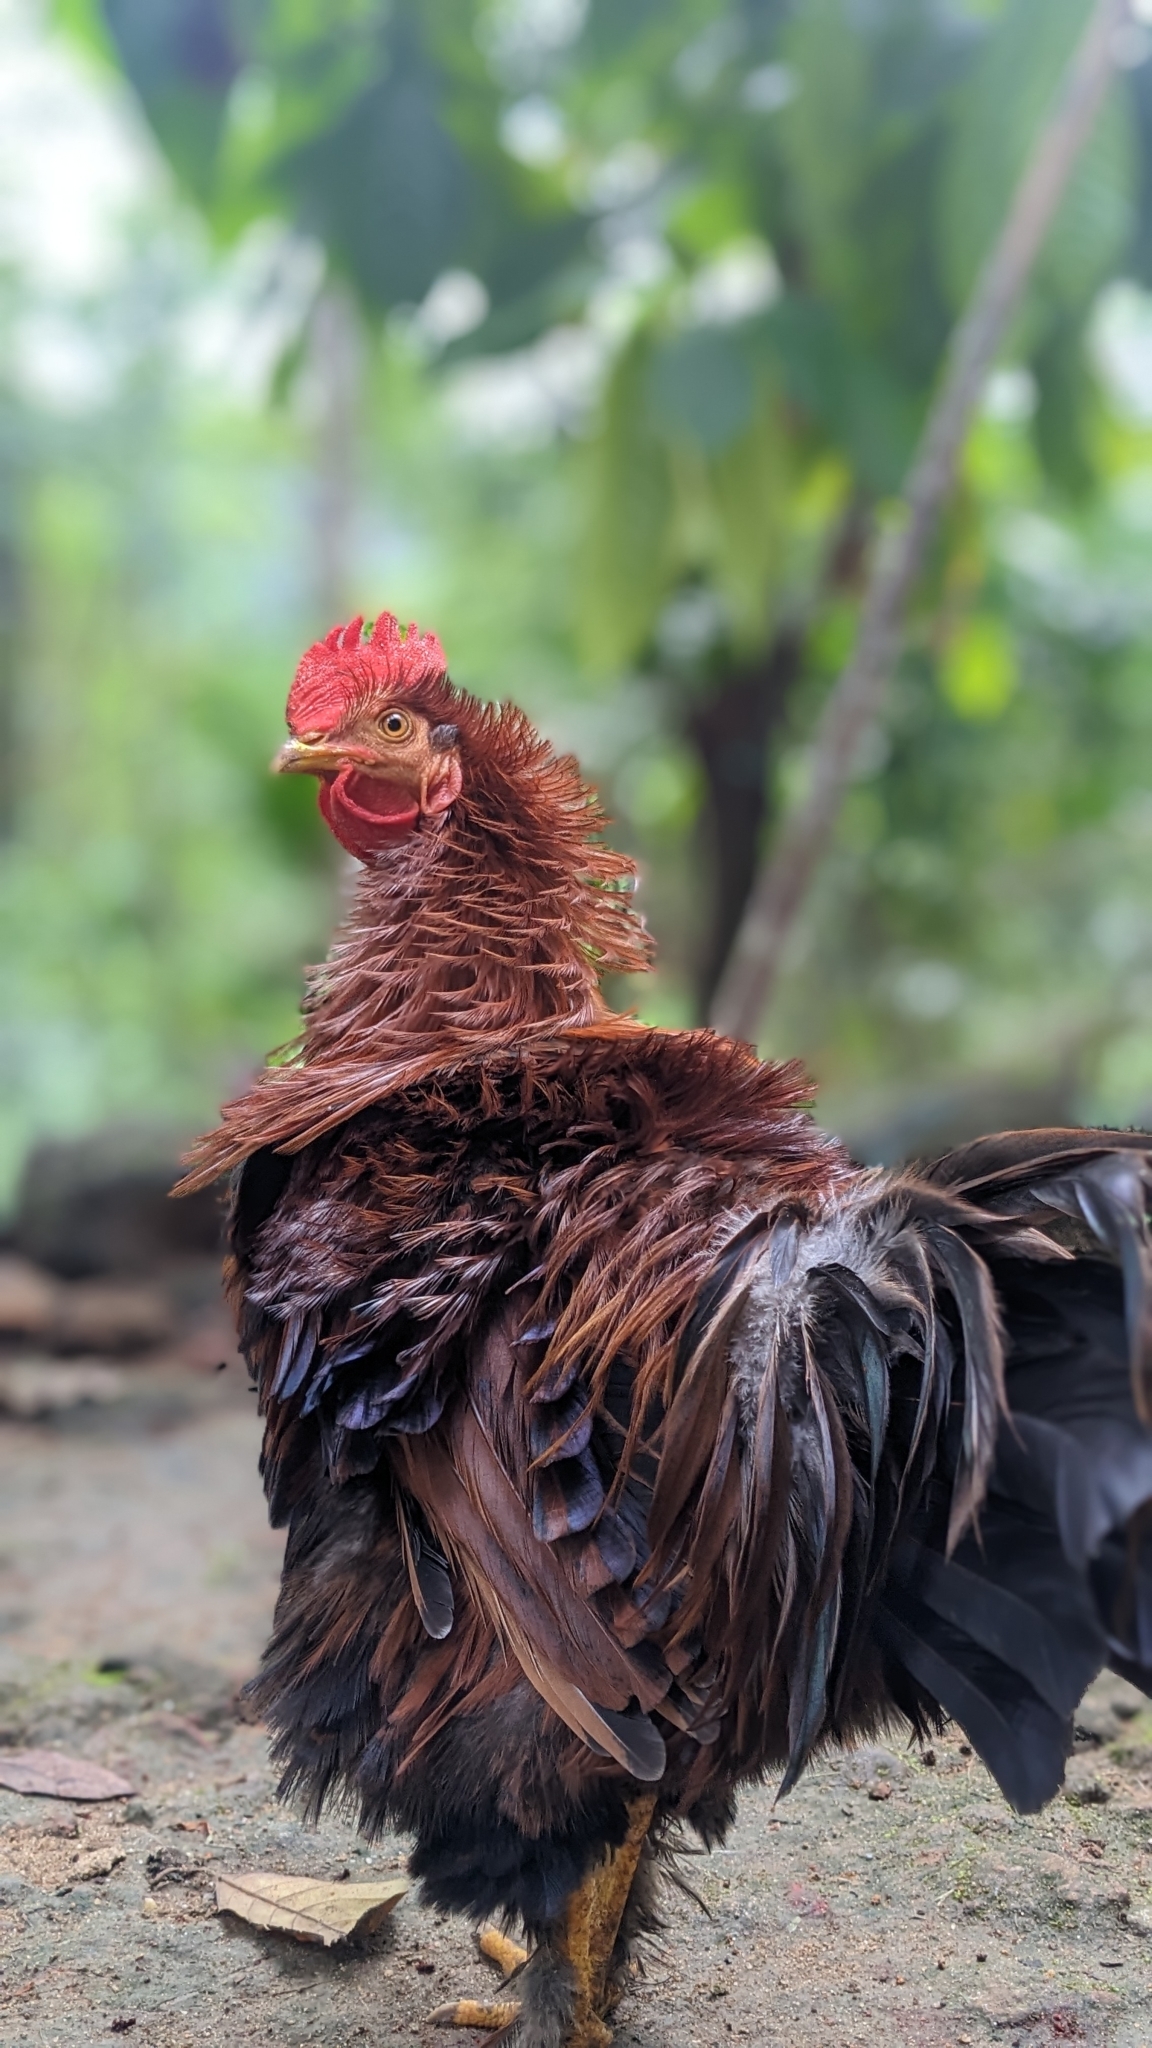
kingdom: Animalia
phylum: Chordata
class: Aves
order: Galliformes
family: Phasianidae
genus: Gallus
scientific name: Gallus gallus
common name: Red junglefowl
